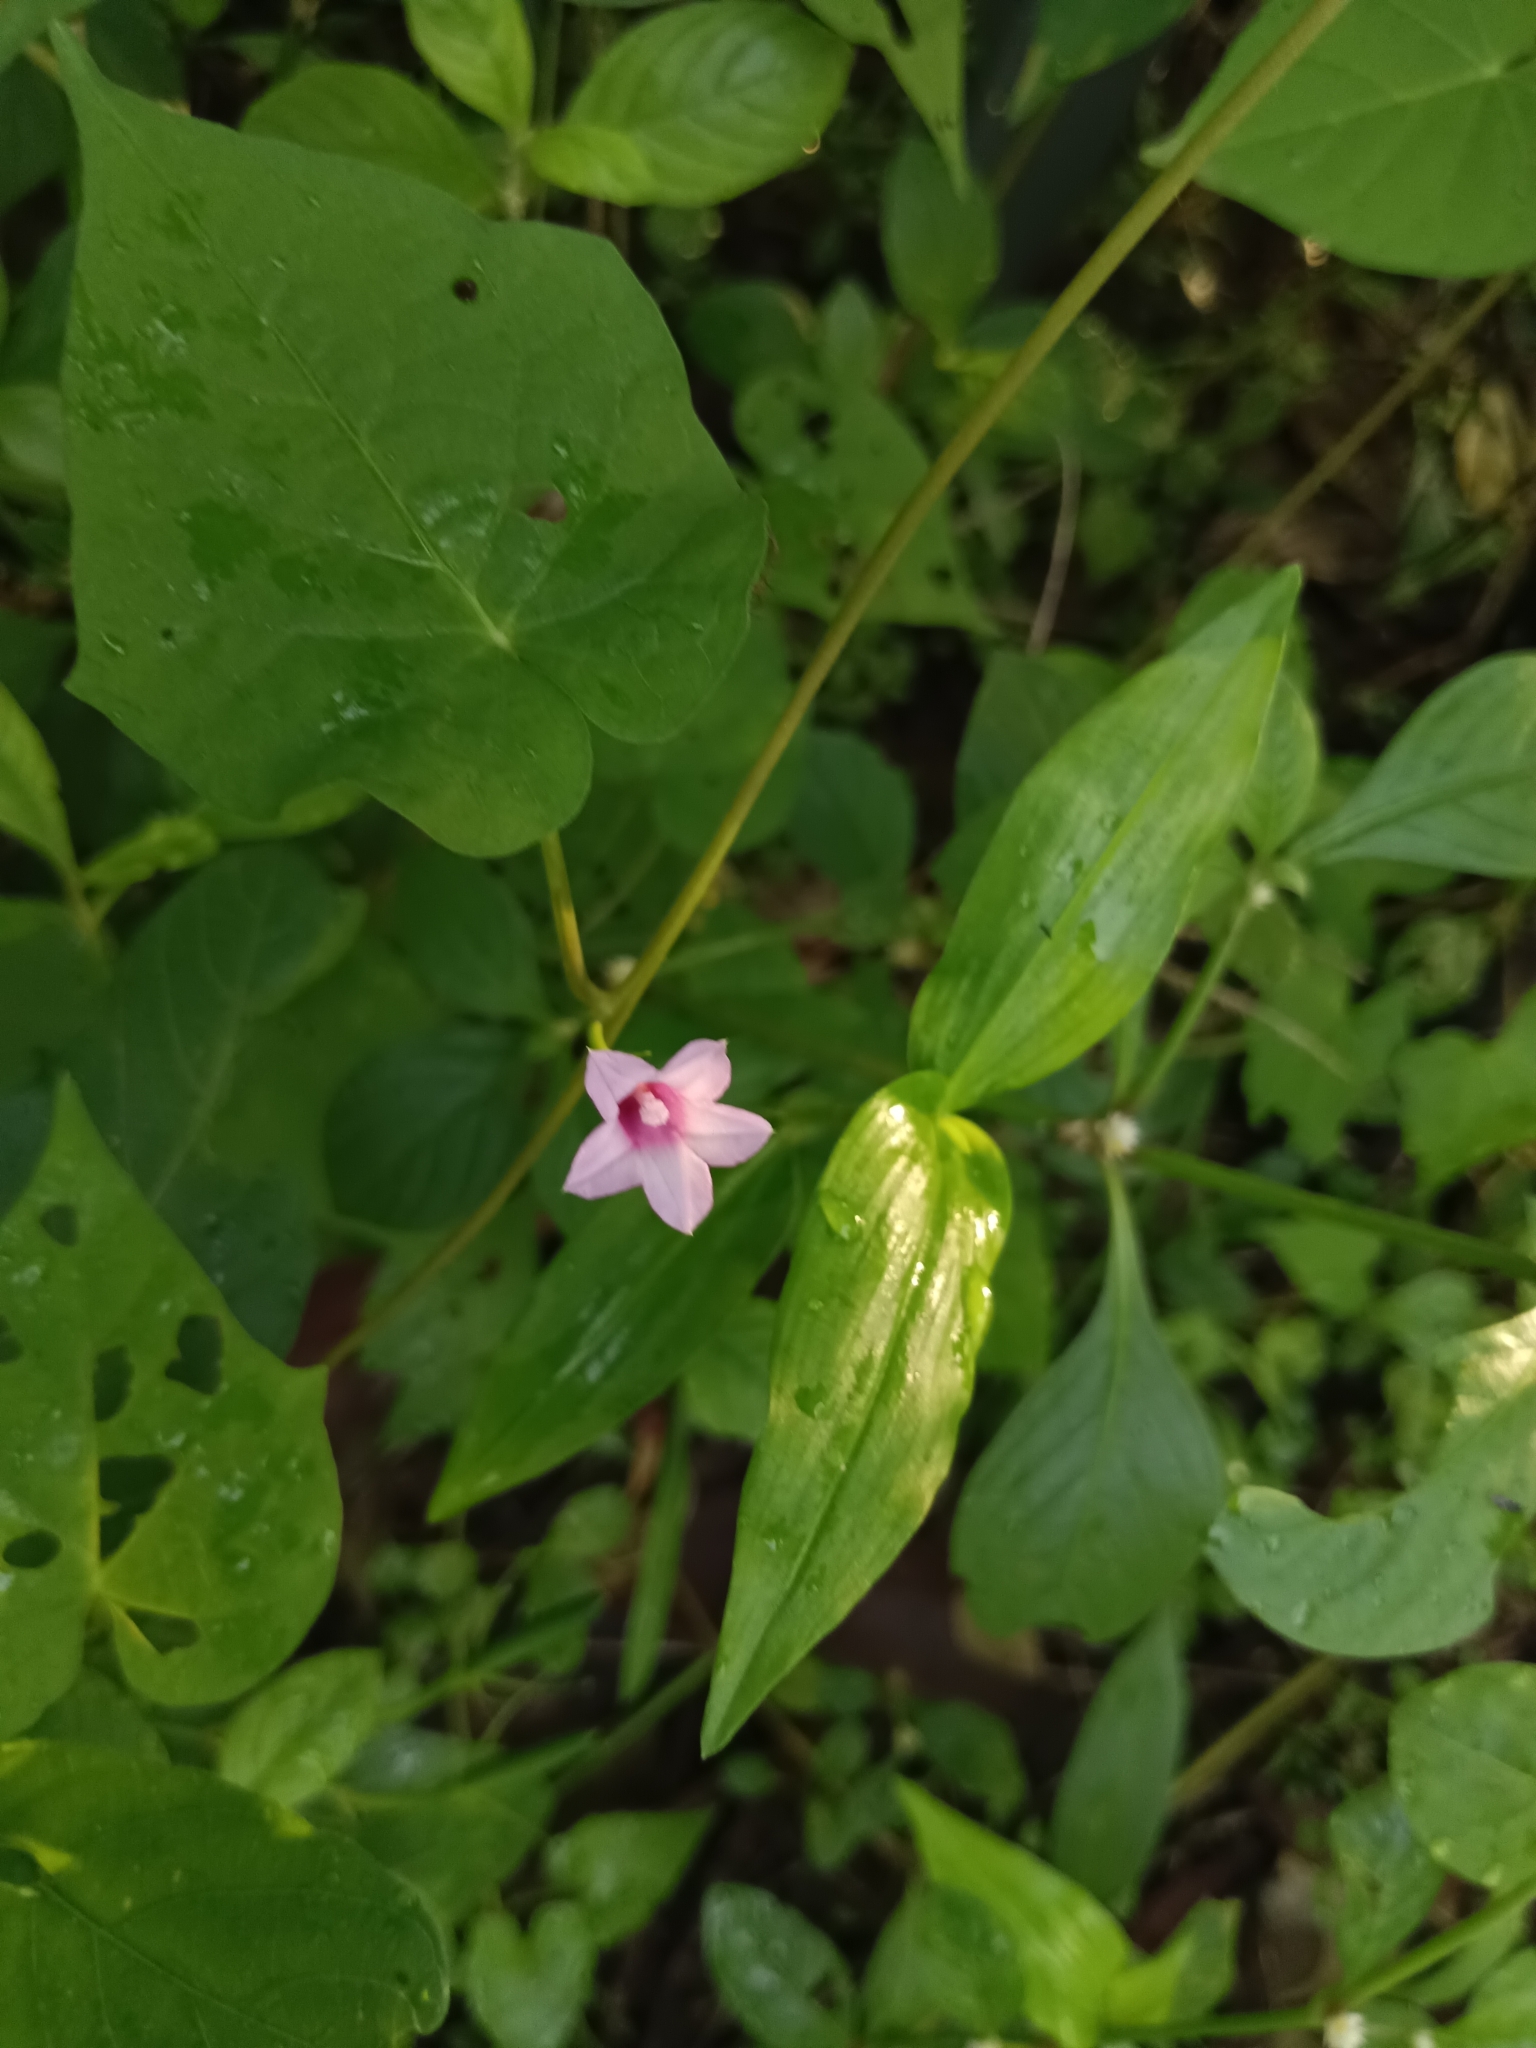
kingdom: Plantae
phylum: Tracheophyta
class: Magnoliopsida
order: Solanales
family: Convolvulaceae
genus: Ipomoea
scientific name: Ipomoea triloba
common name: Little-bell
